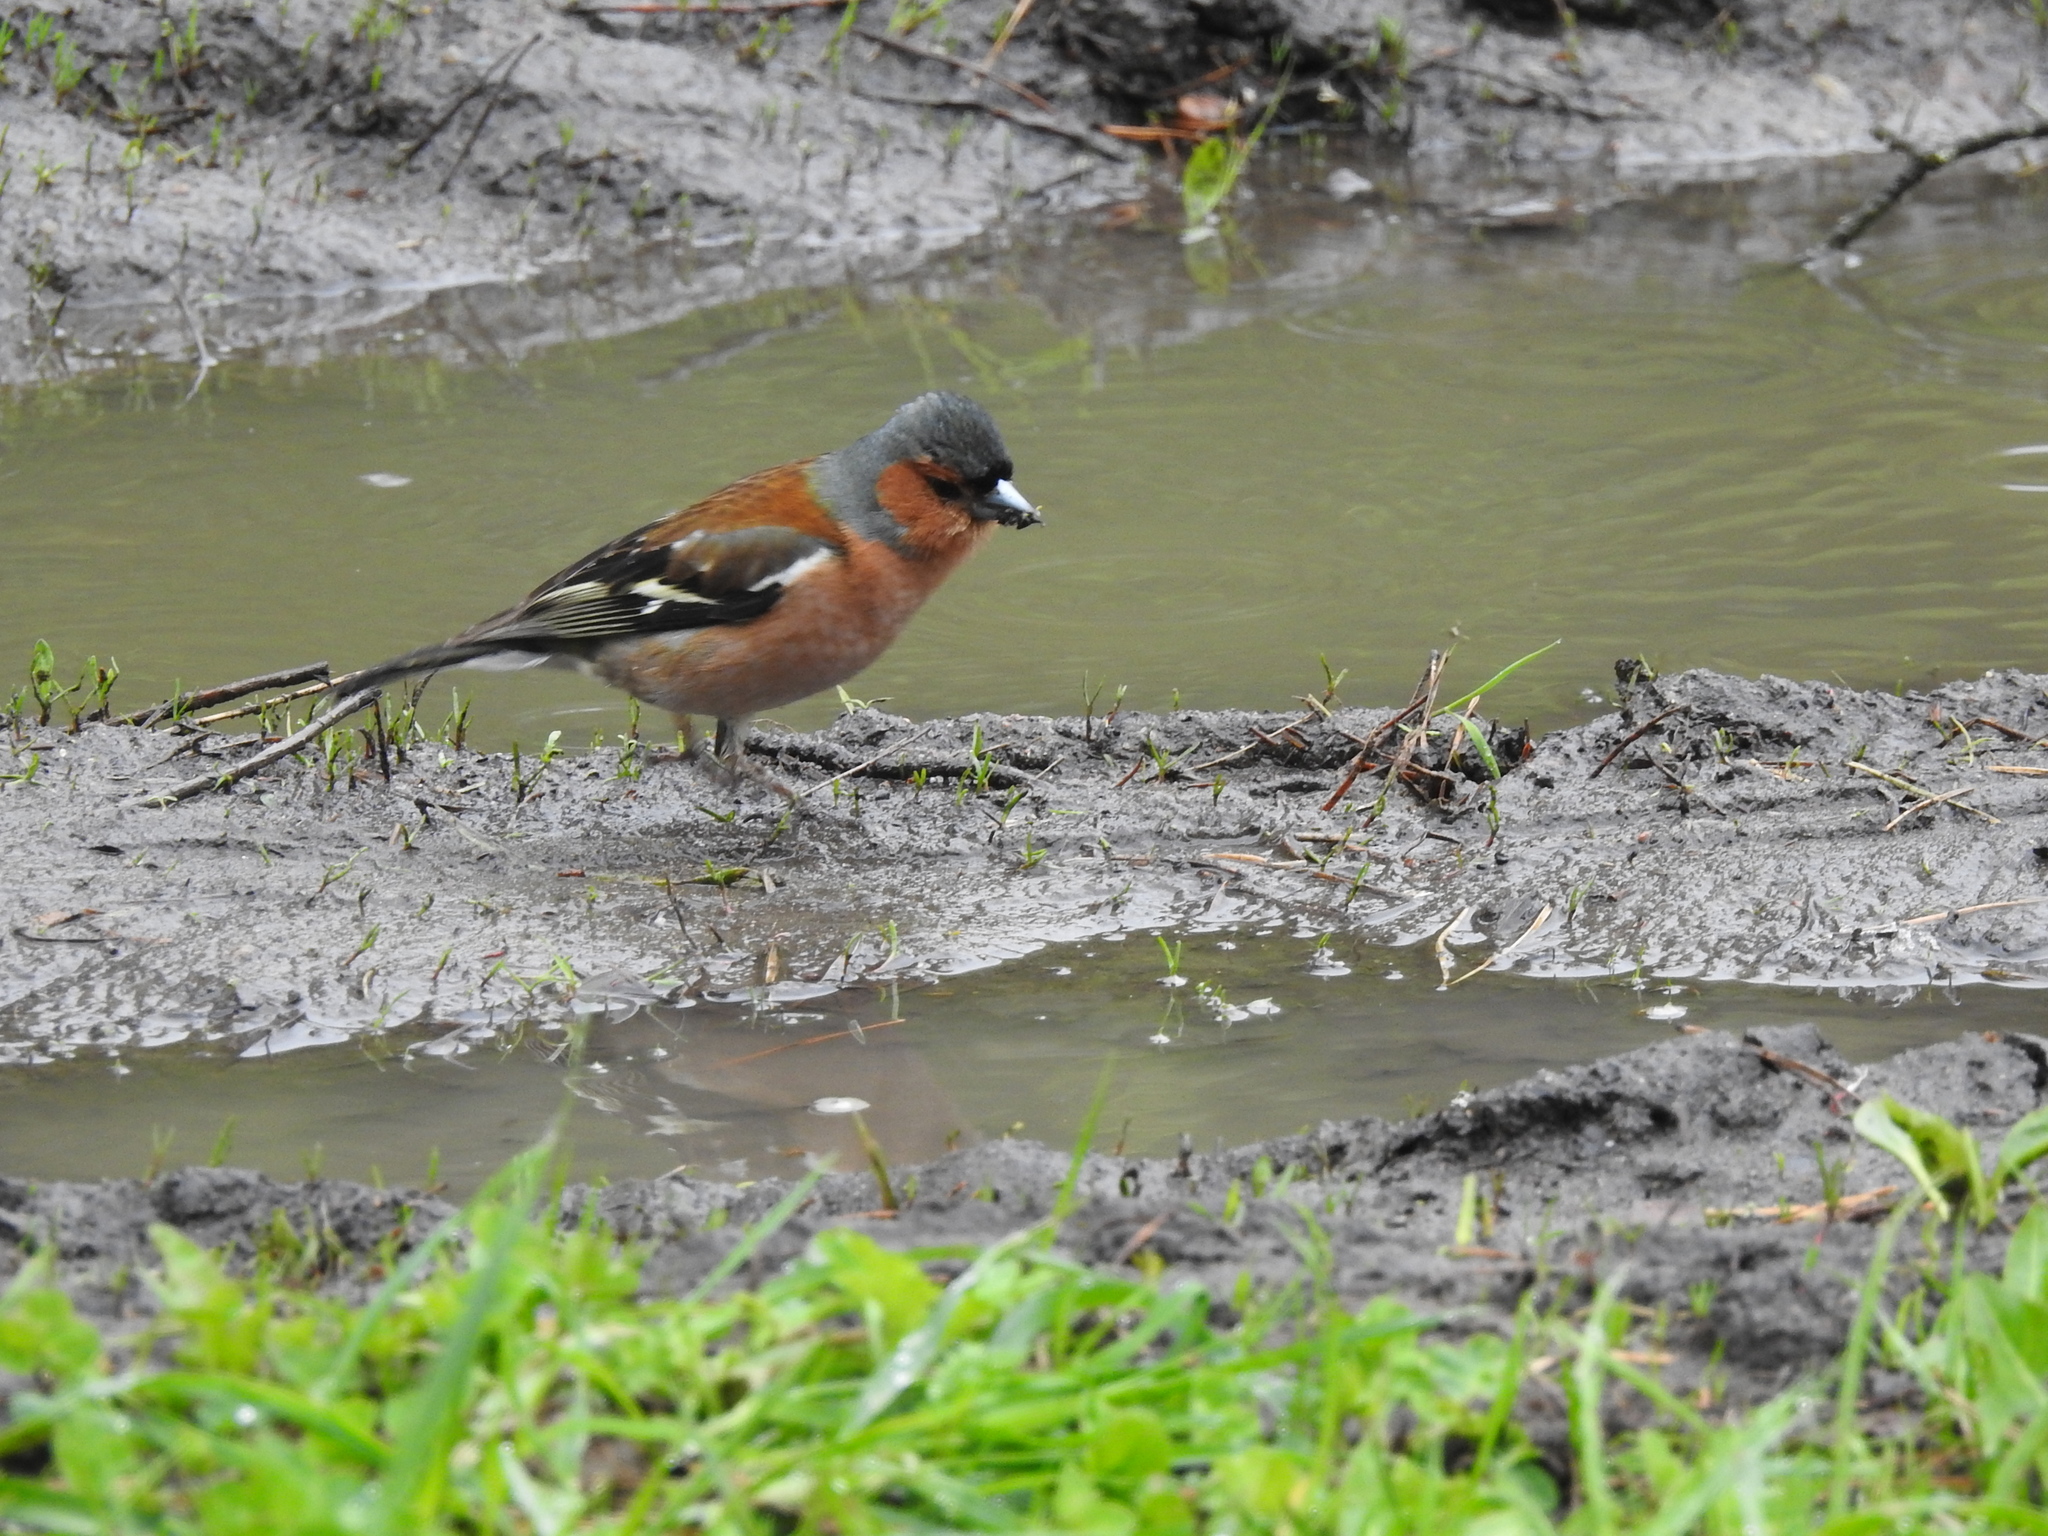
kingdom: Animalia
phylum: Chordata
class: Aves
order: Passeriformes
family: Fringillidae
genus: Fringilla
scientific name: Fringilla coelebs
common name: Common chaffinch
